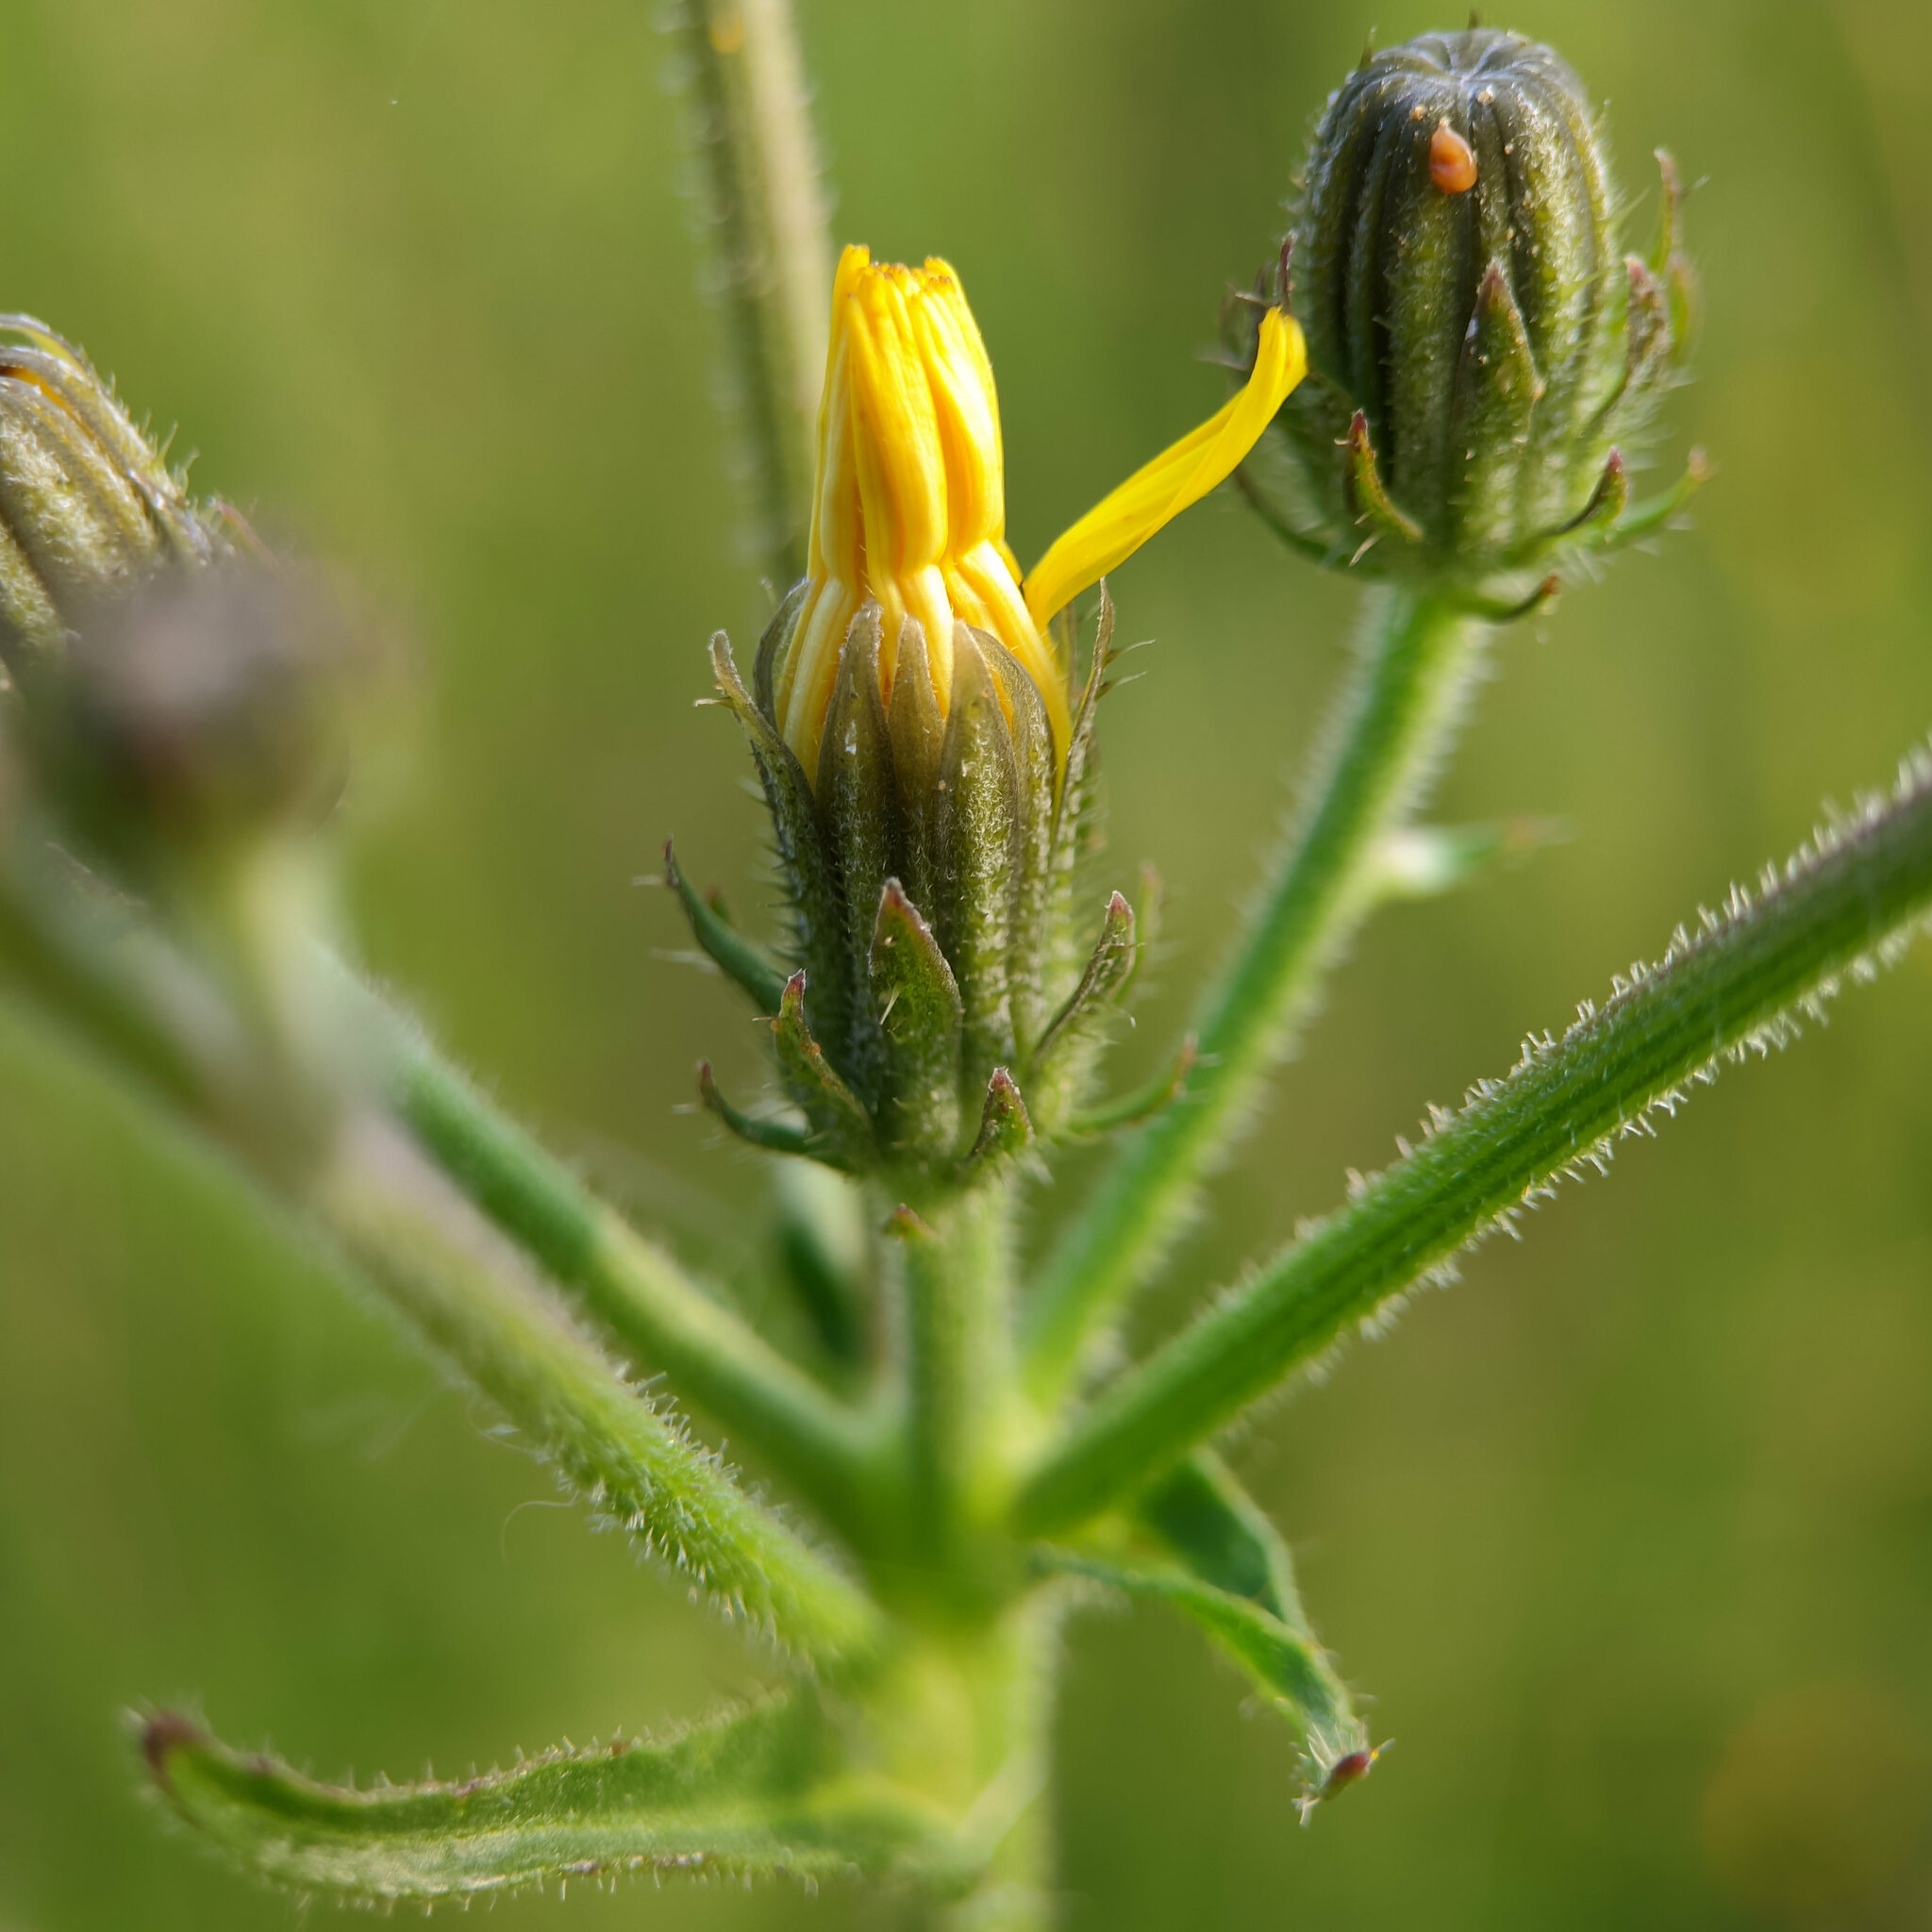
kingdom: Plantae
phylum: Tracheophyta
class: Magnoliopsida
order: Asterales
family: Asteraceae
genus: Picris
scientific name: Picris hieracioides
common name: Hawkweed oxtongue
